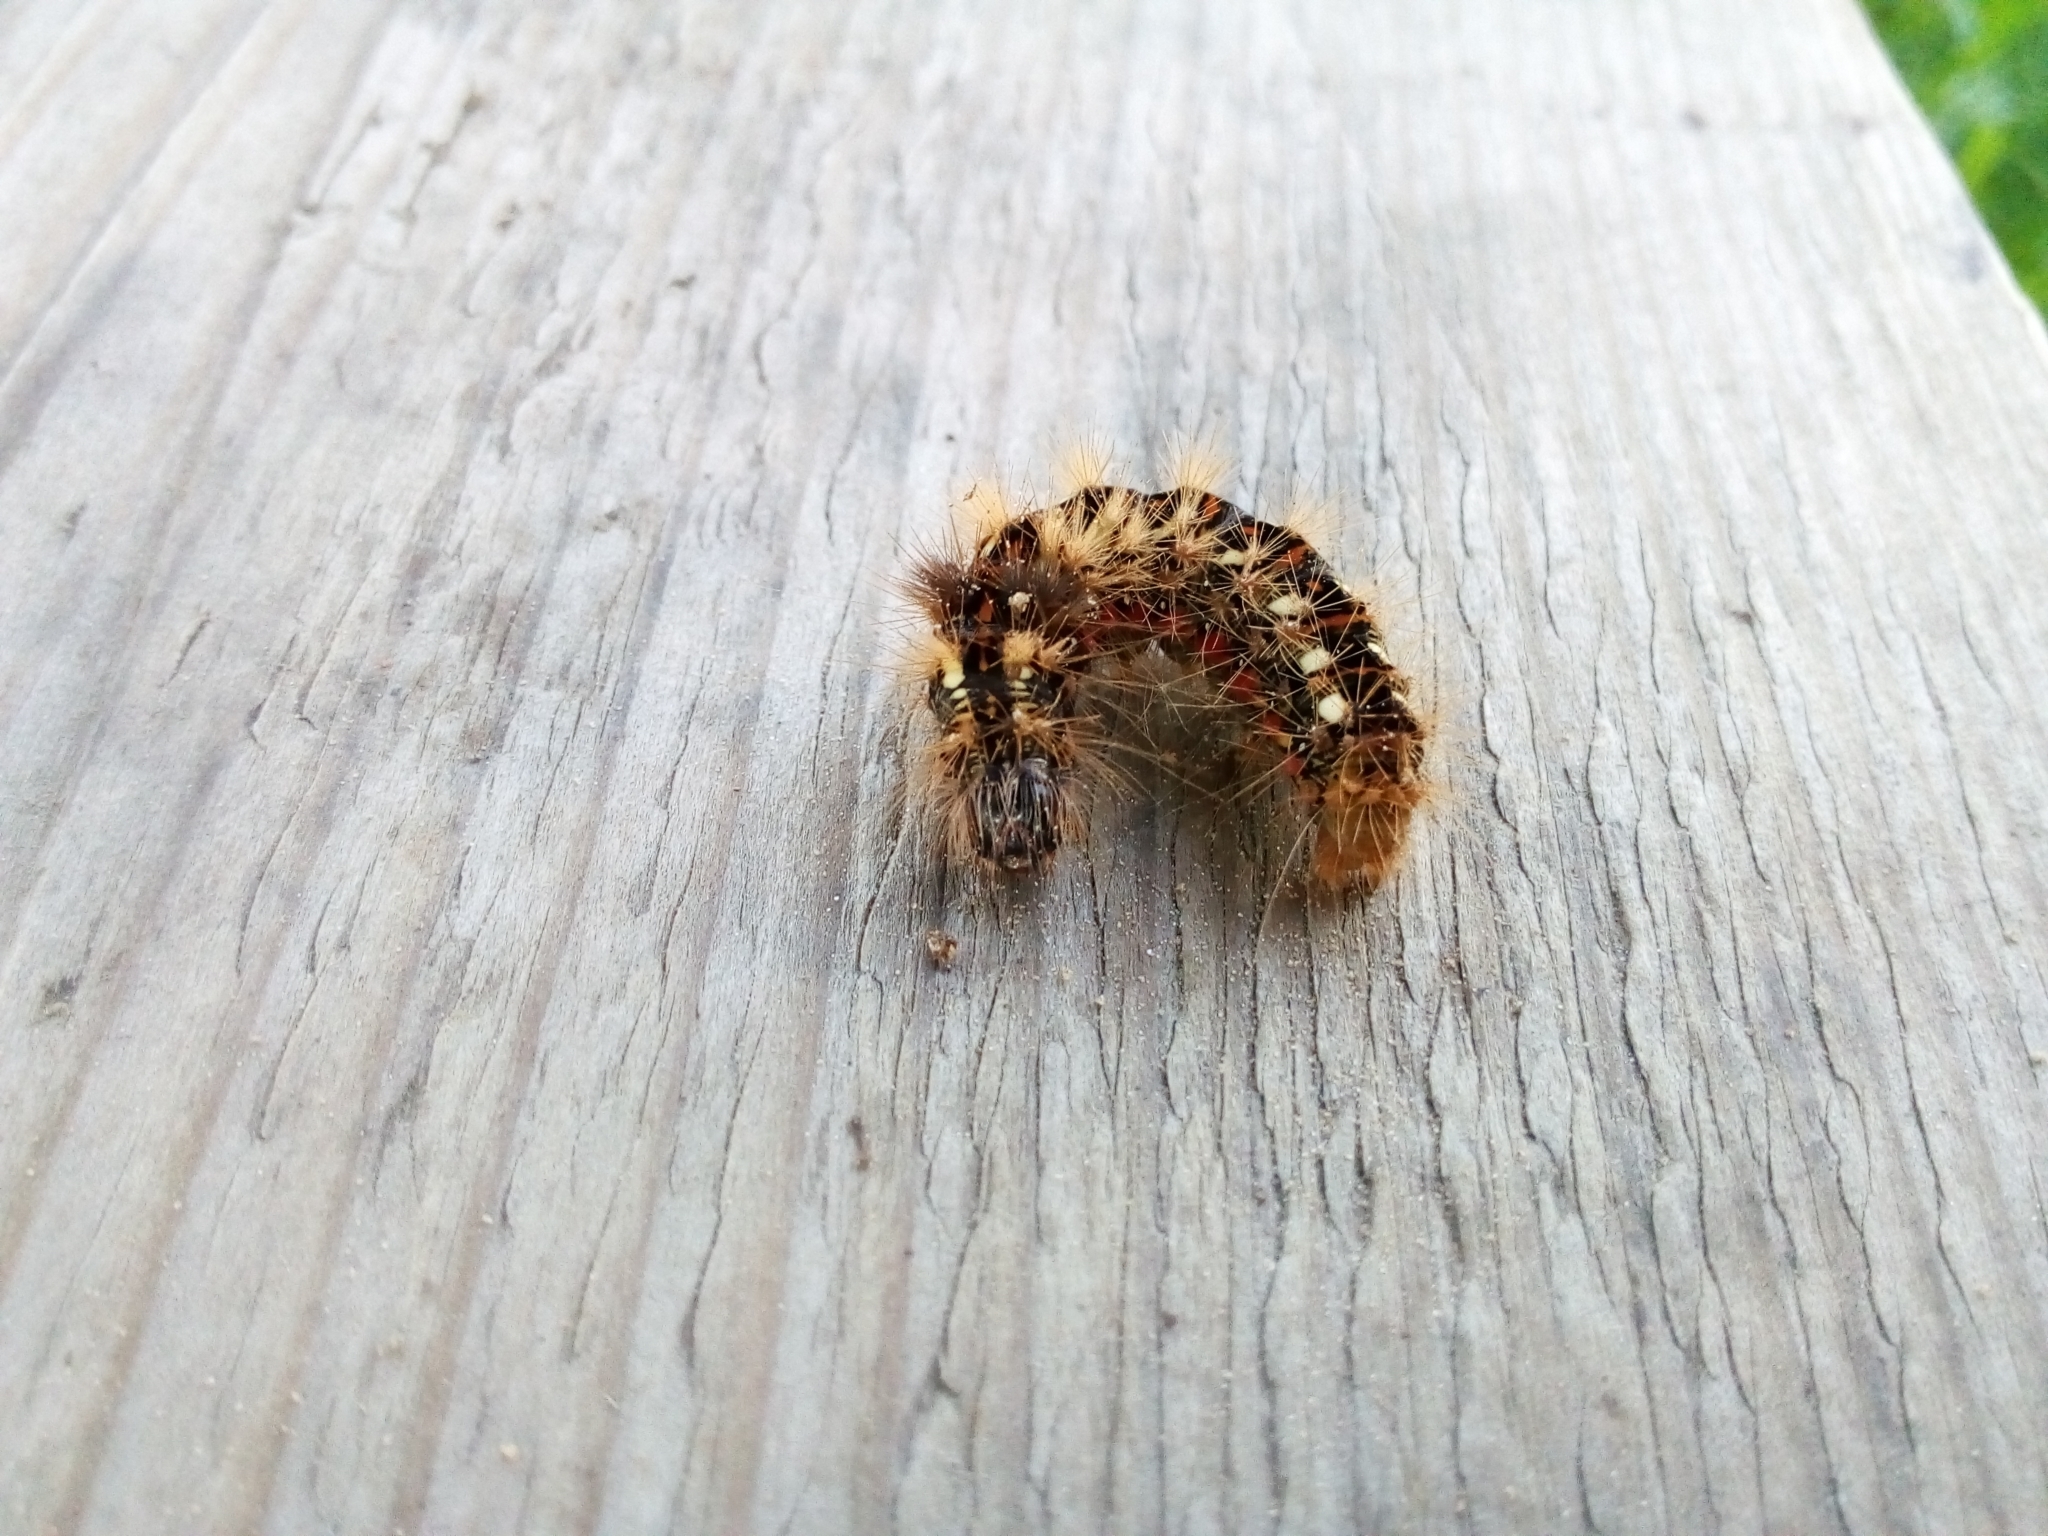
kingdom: Animalia
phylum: Arthropoda
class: Insecta
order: Lepidoptera
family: Noctuidae
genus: Acronicta
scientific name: Acronicta rumicis
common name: Knot grass
